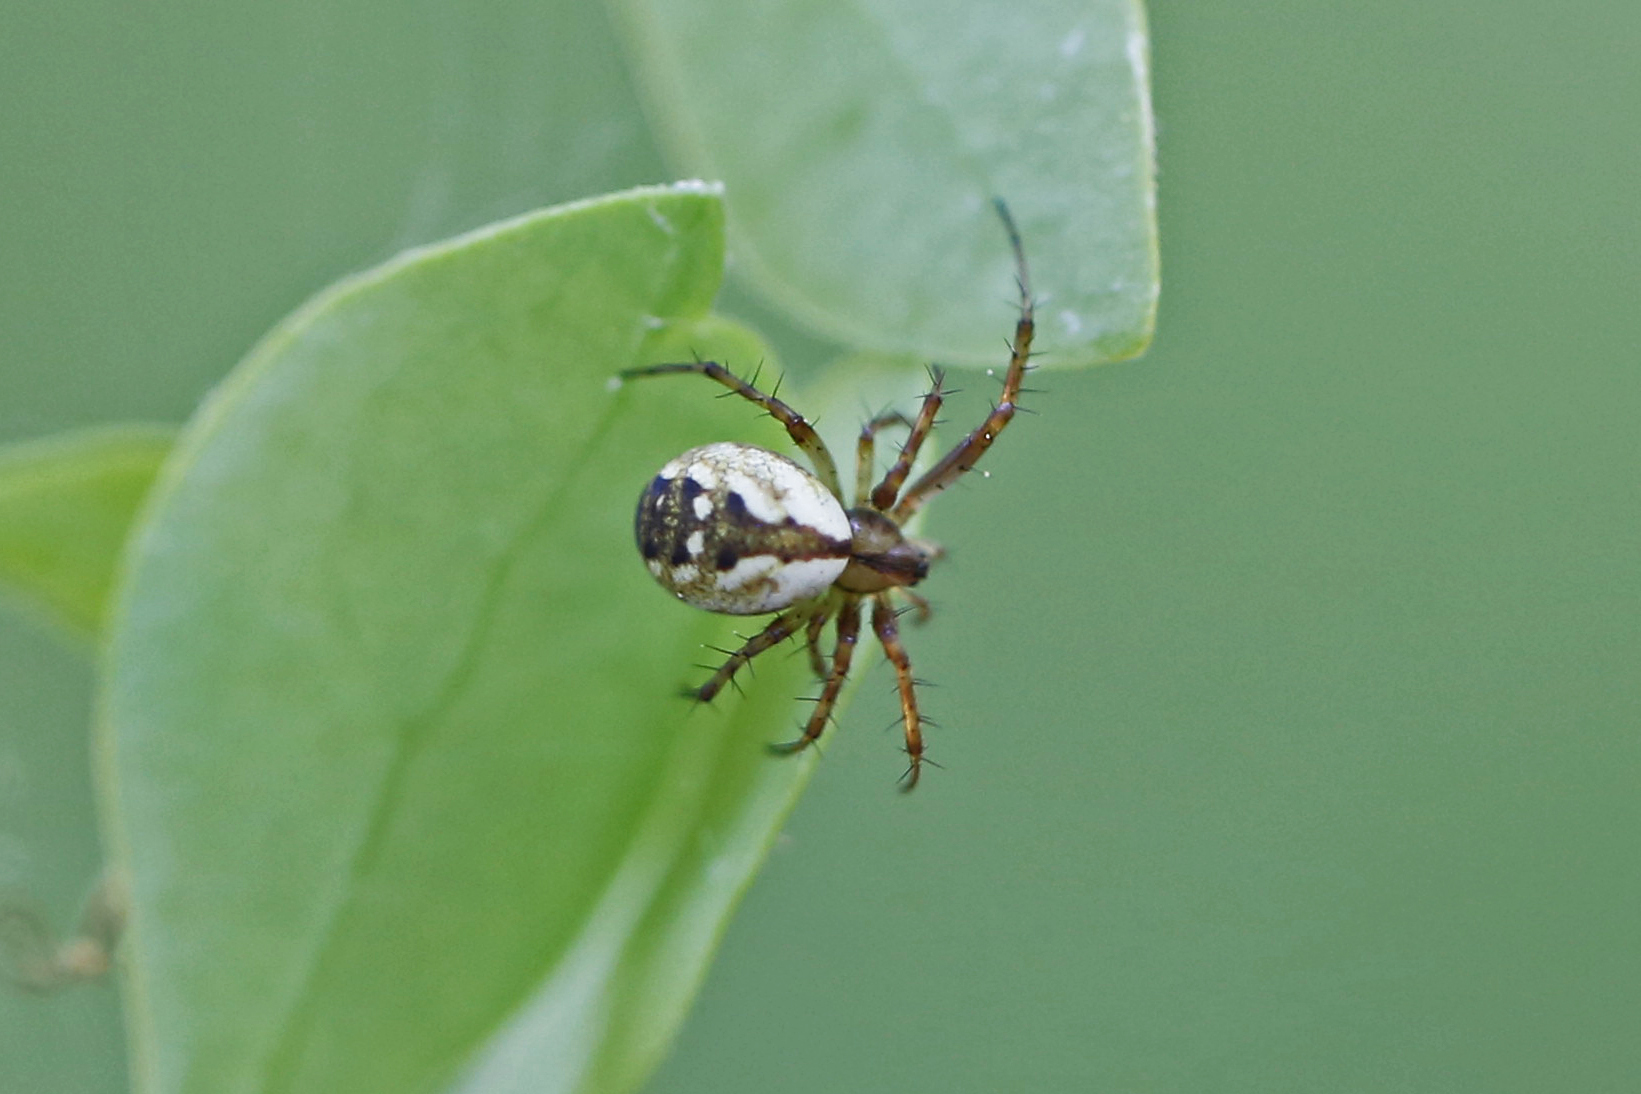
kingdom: Animalia
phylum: Arthropoda
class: Arachnida
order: Araneae
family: Araneidae
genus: Mangora
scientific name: Mangora placida
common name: Tuft-legged orbweaver
